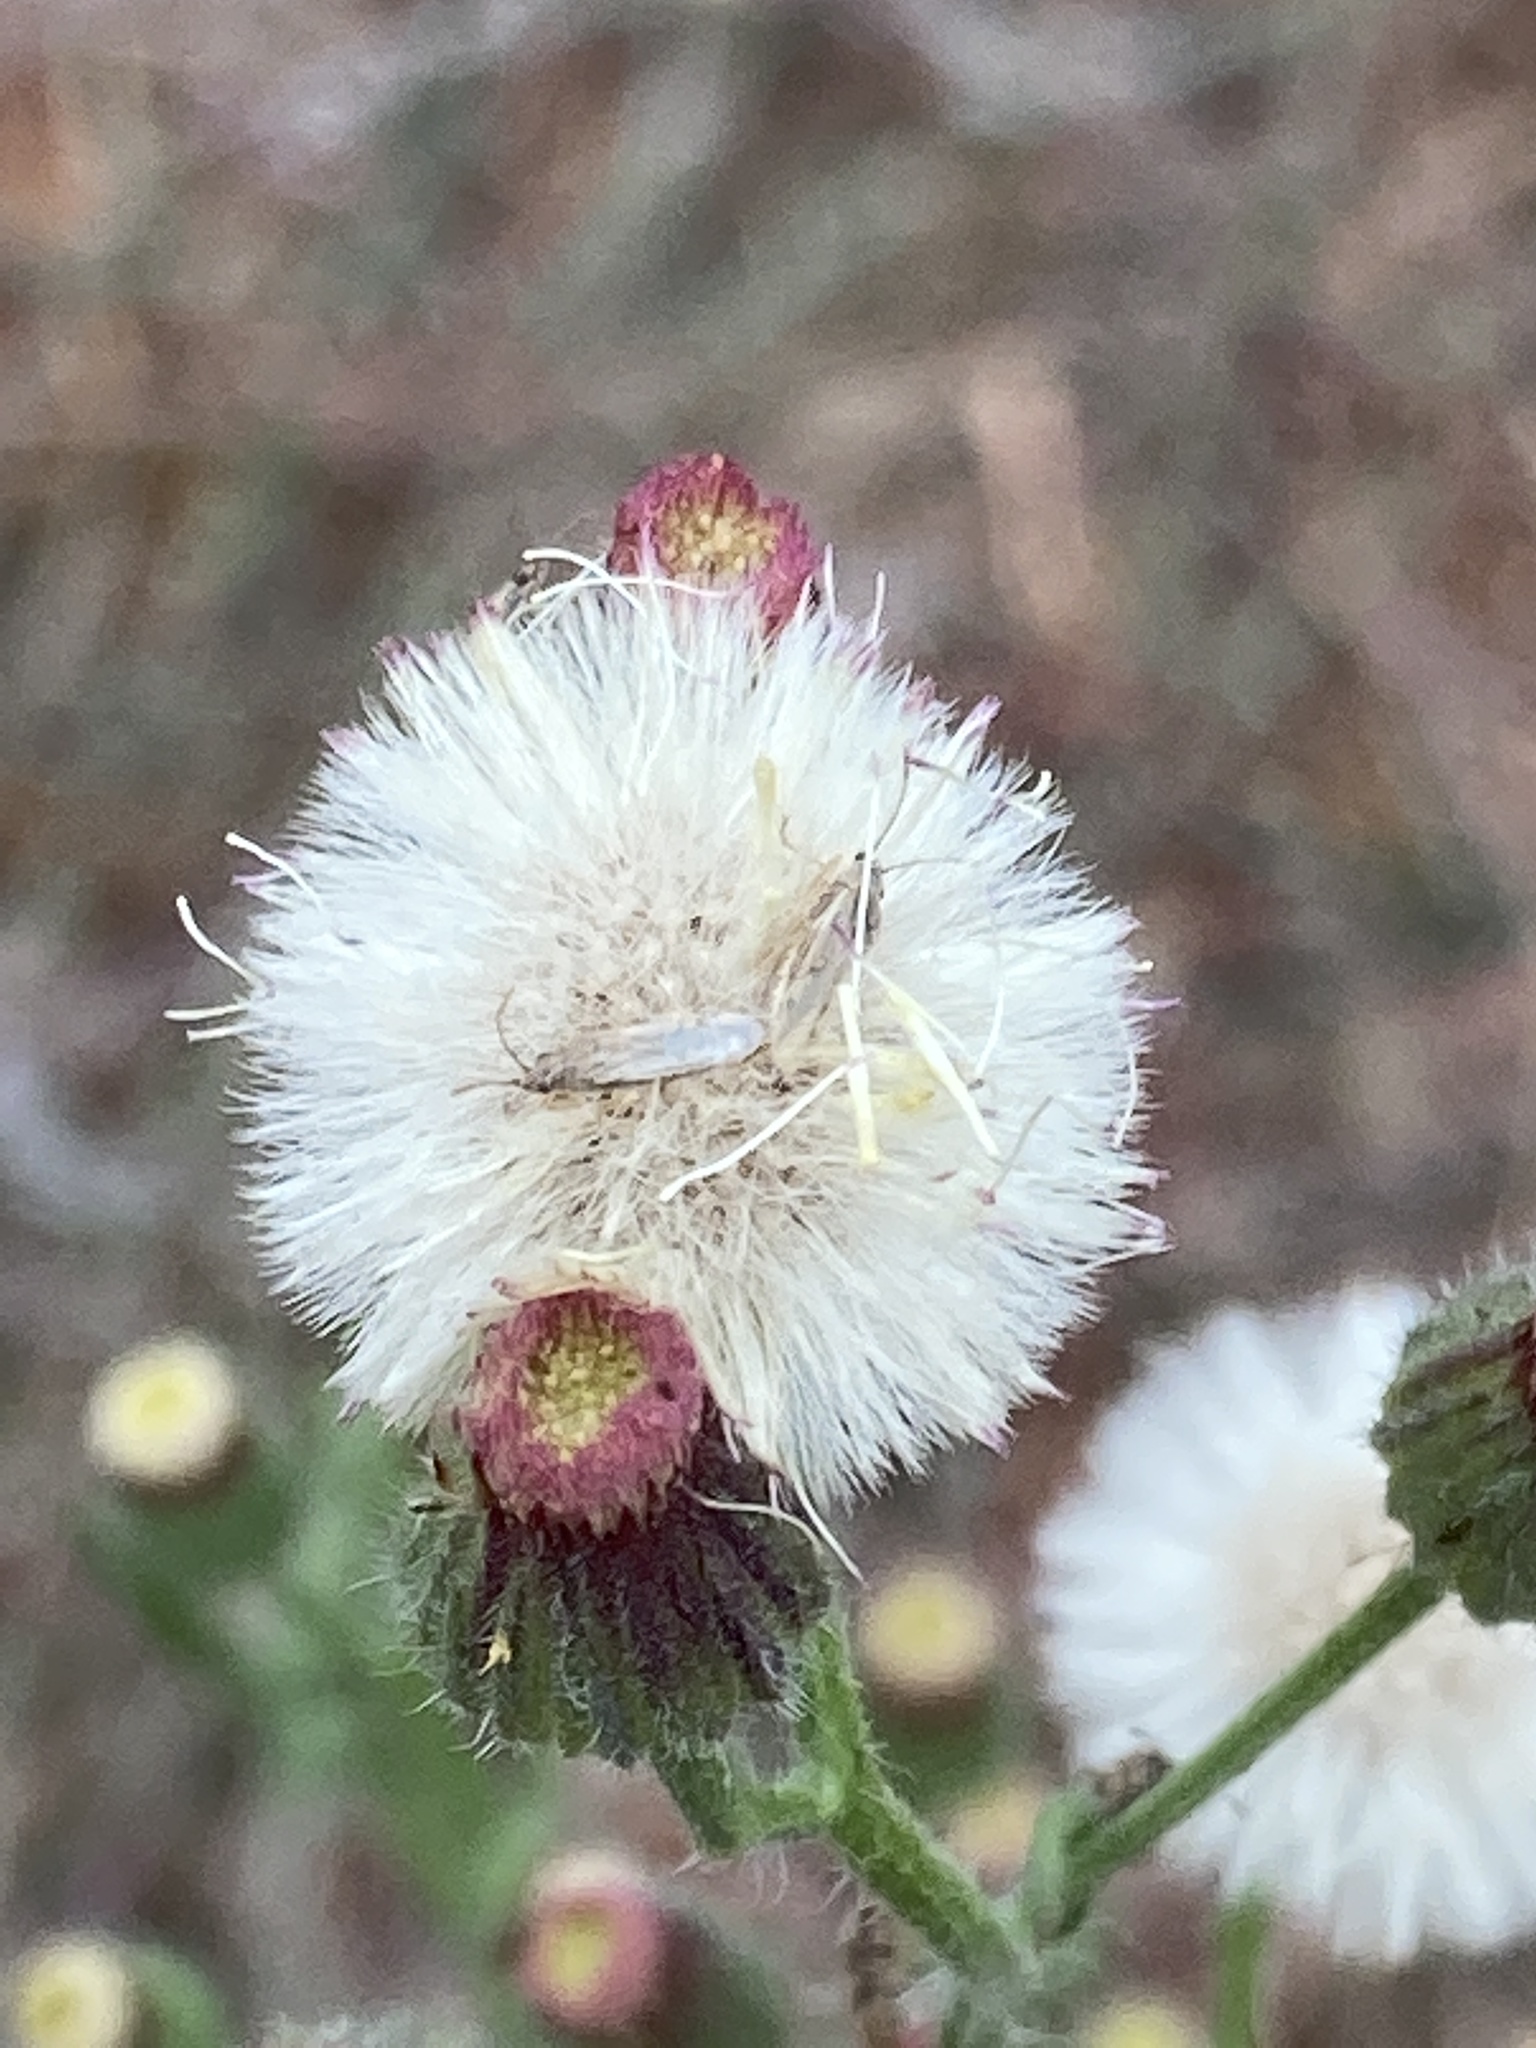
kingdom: Plantae
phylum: Tracheophyta
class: Magnoliopsida
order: Asterales
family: Asteraceae
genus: Erigeron
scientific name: Erigeron bonariensis
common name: Argentine fleabane
